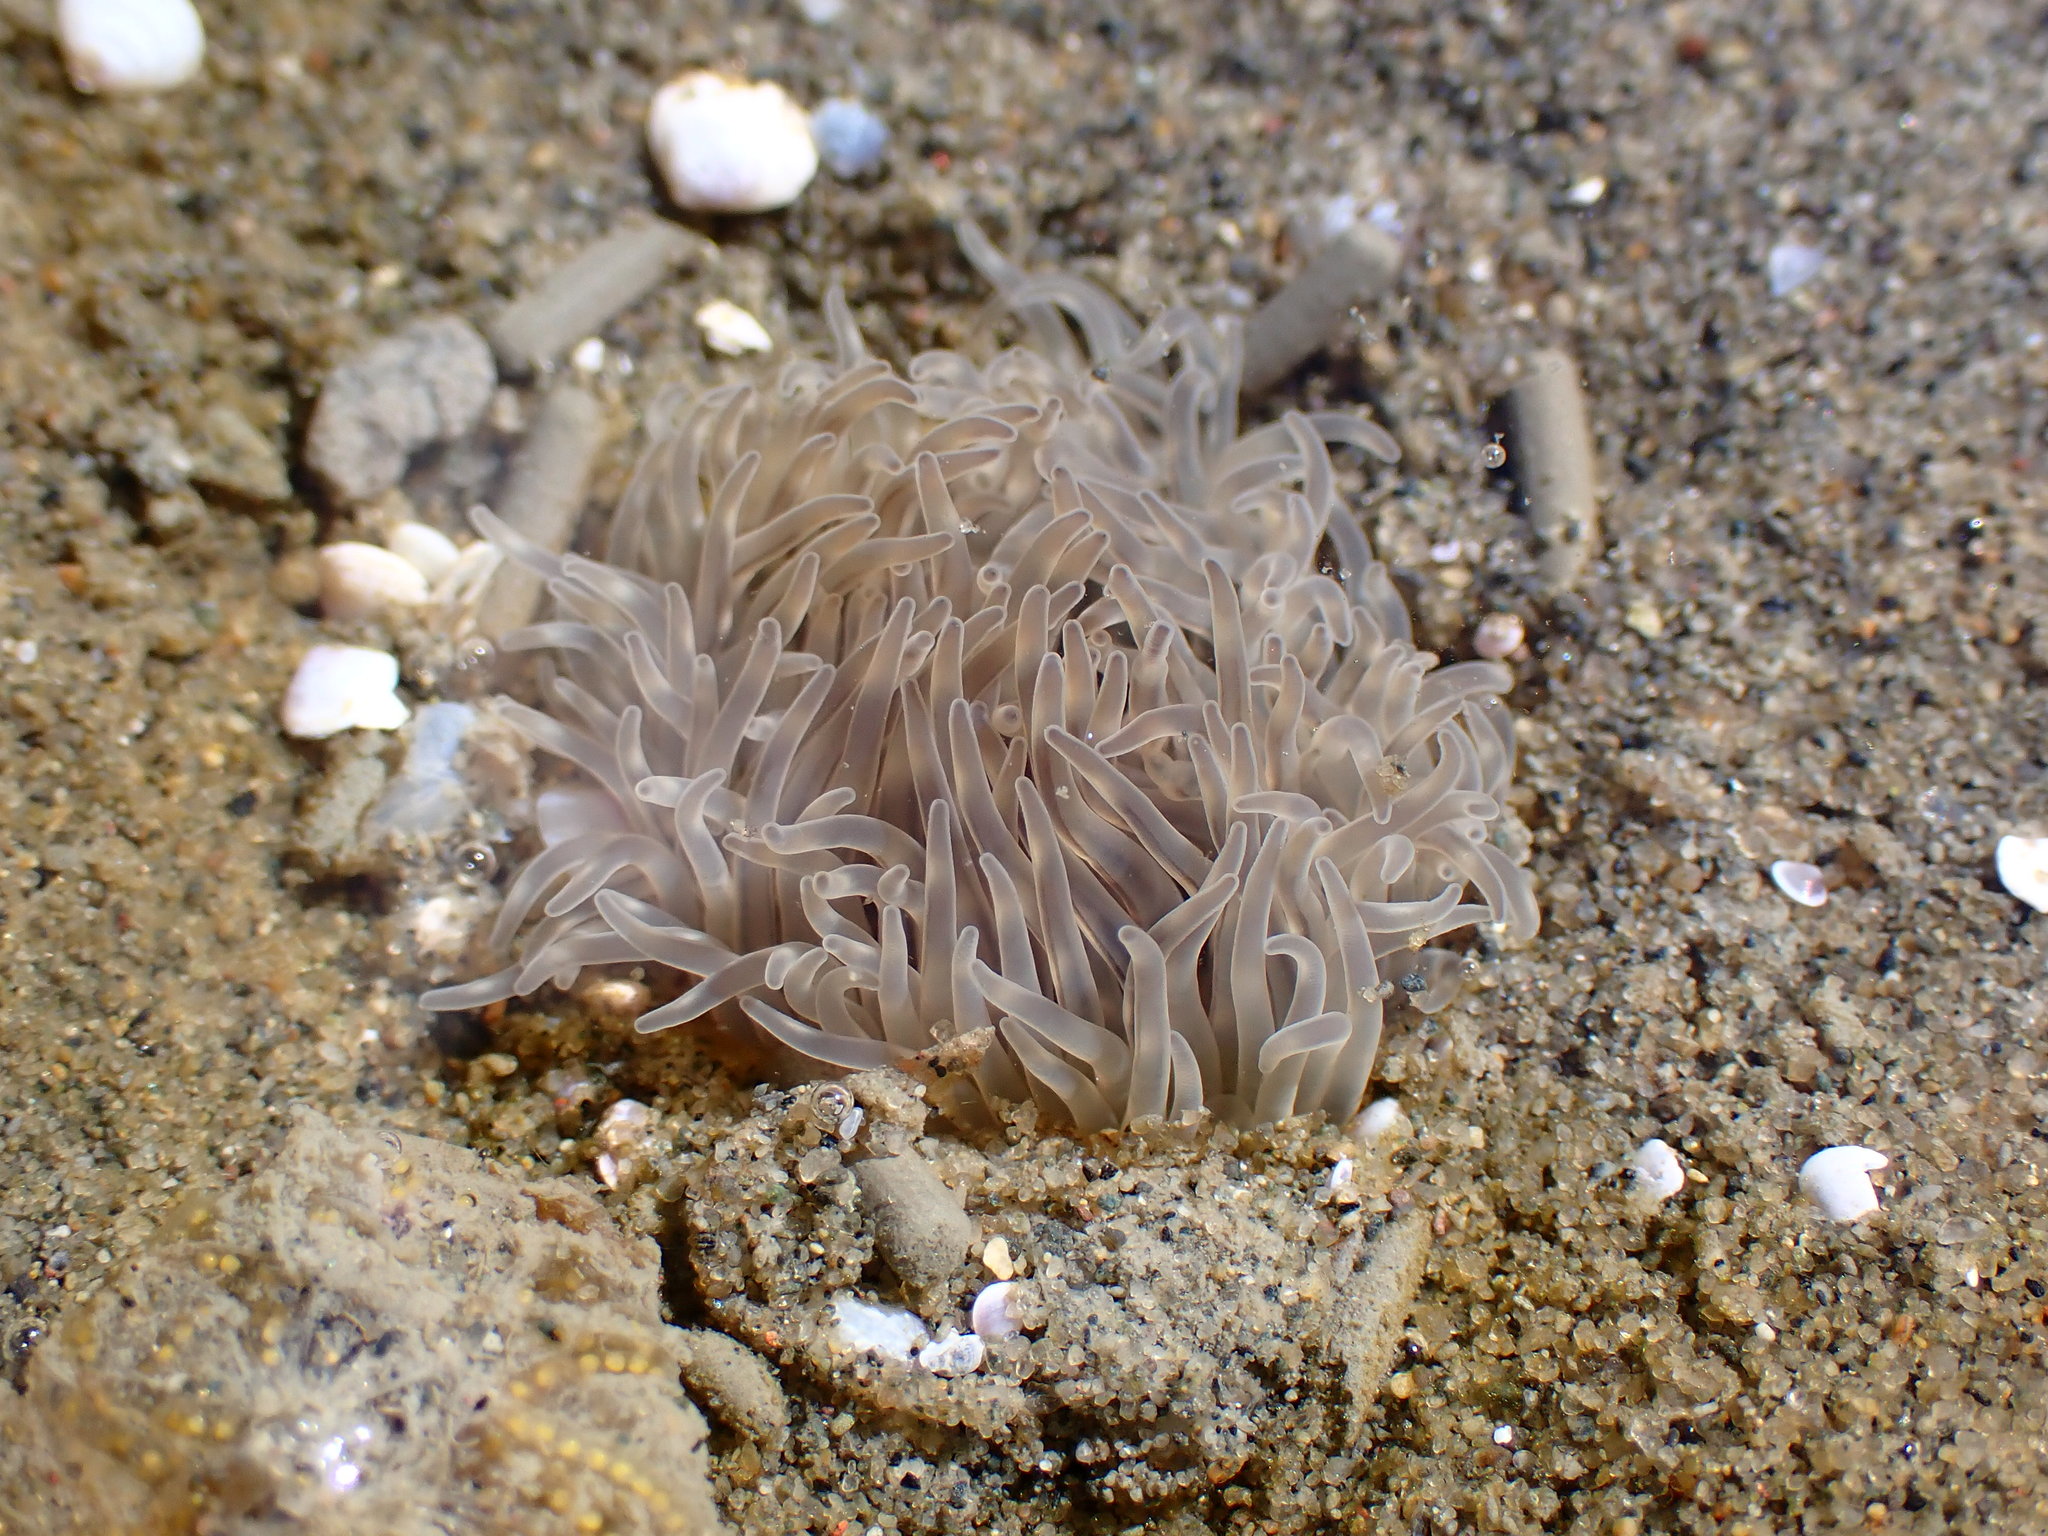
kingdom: Animalia
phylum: Cnidaria
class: Anthozoa
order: Actiniaria
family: Andvakiidae
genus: Flosmaris
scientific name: Flosmaris grandis
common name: White burrowing anemone
